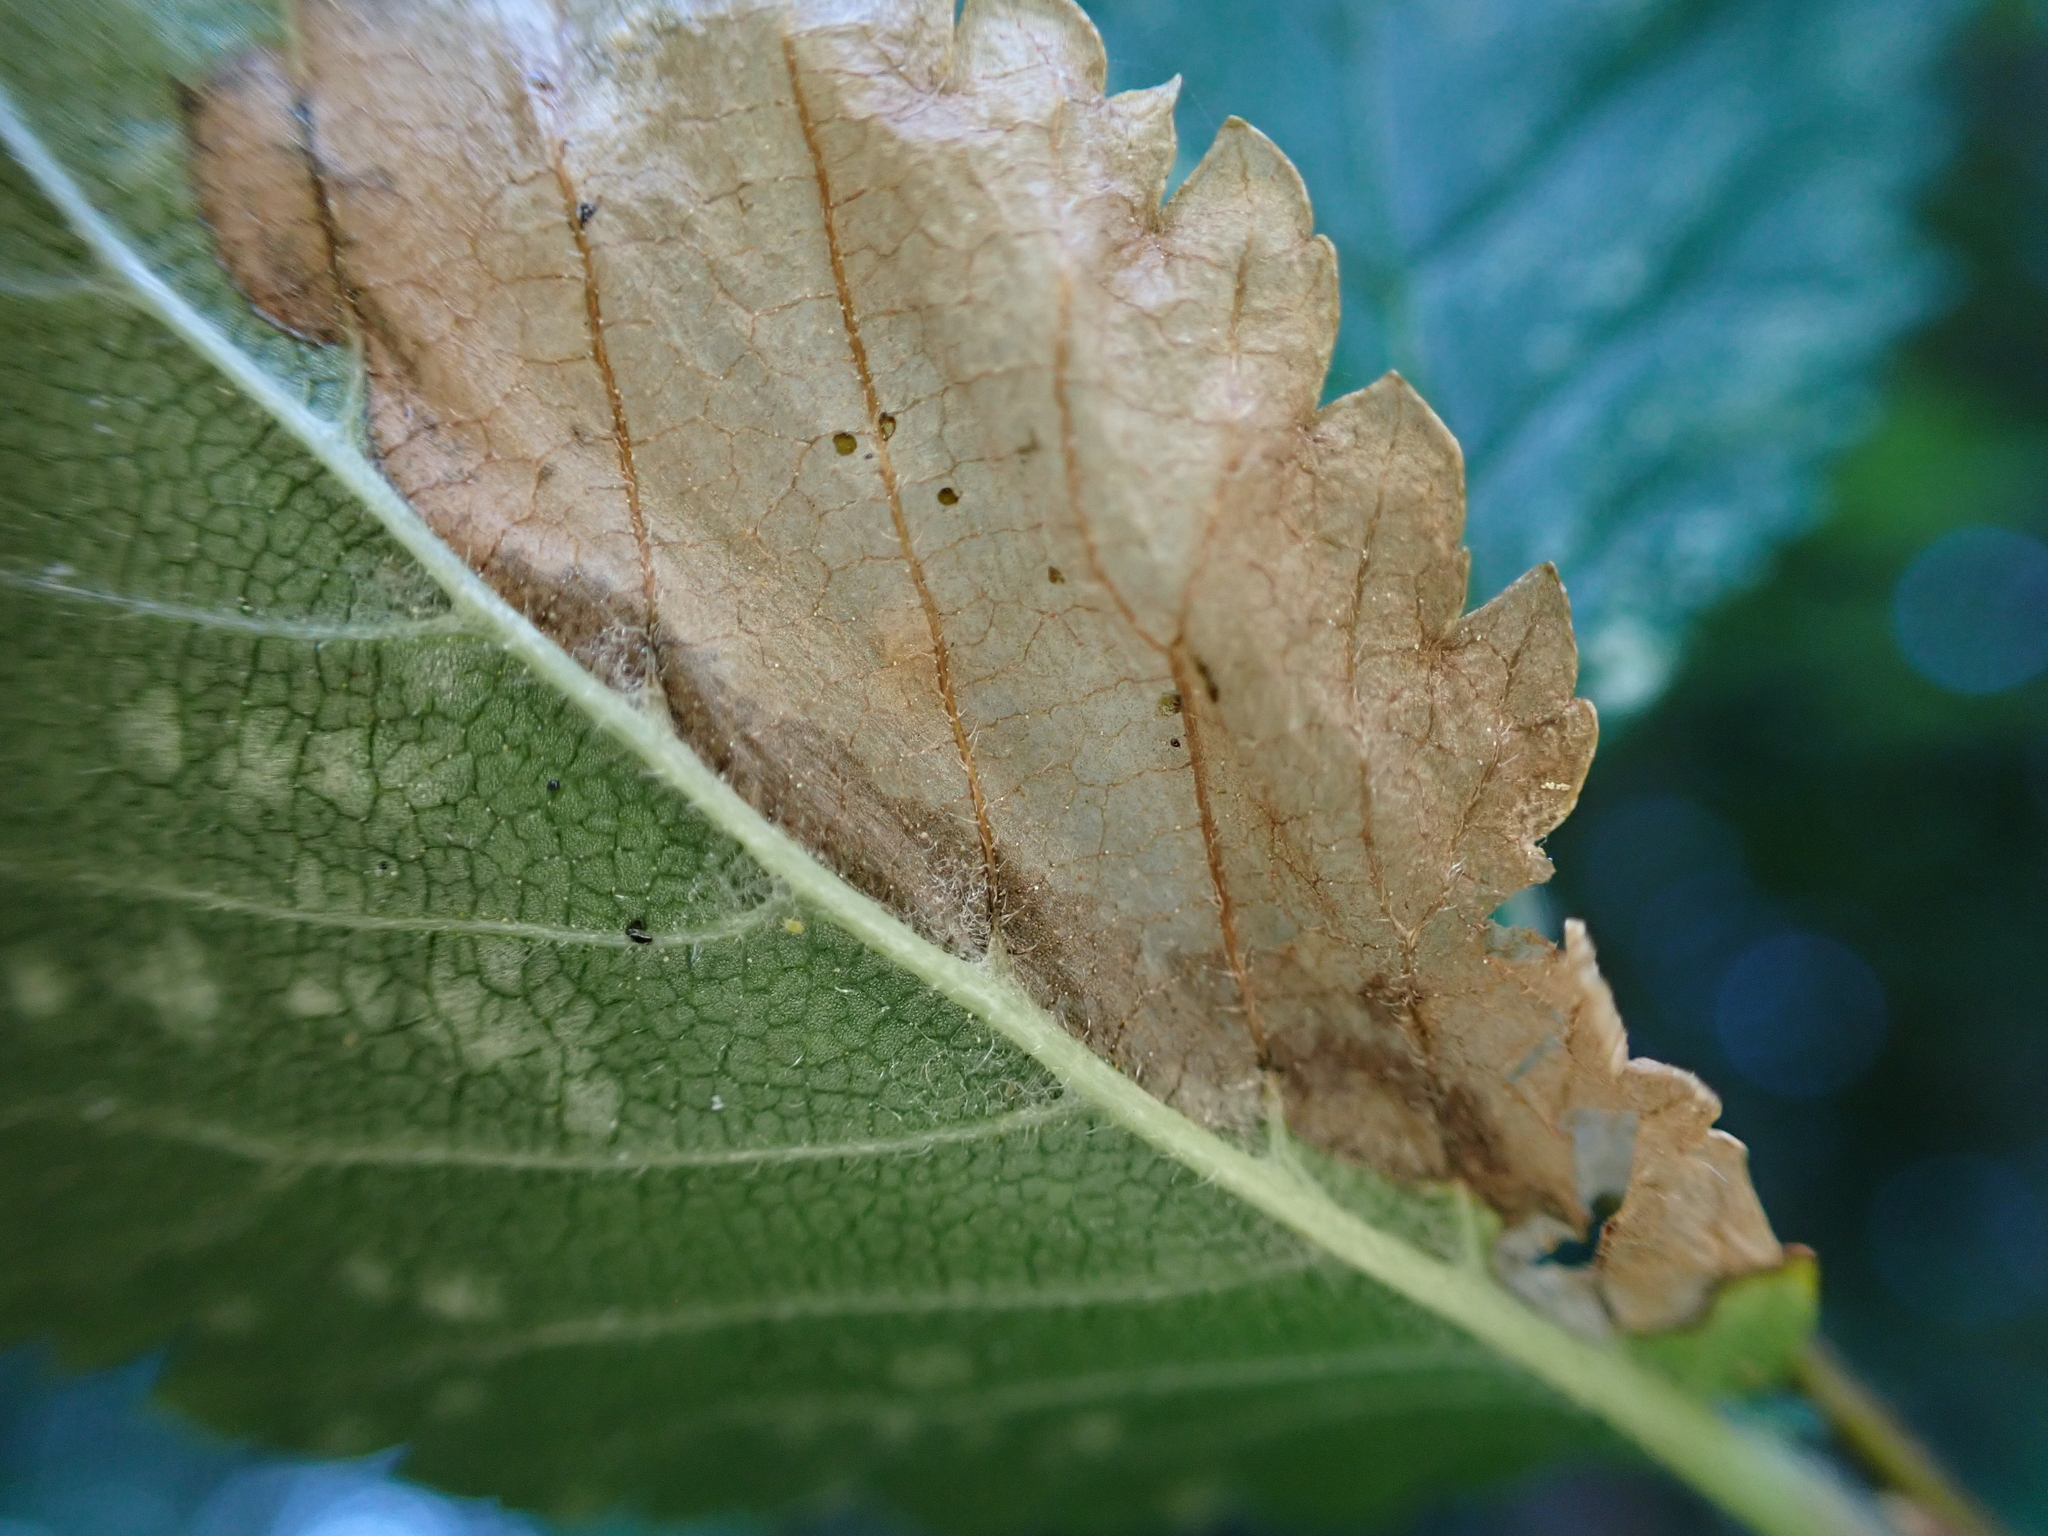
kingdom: Animalia
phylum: Arthropoda
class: Insecta
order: Hymenoptera
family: Tenthredinidae
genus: Fenusa
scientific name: Fenusa ulmi
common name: Elm leafminer
